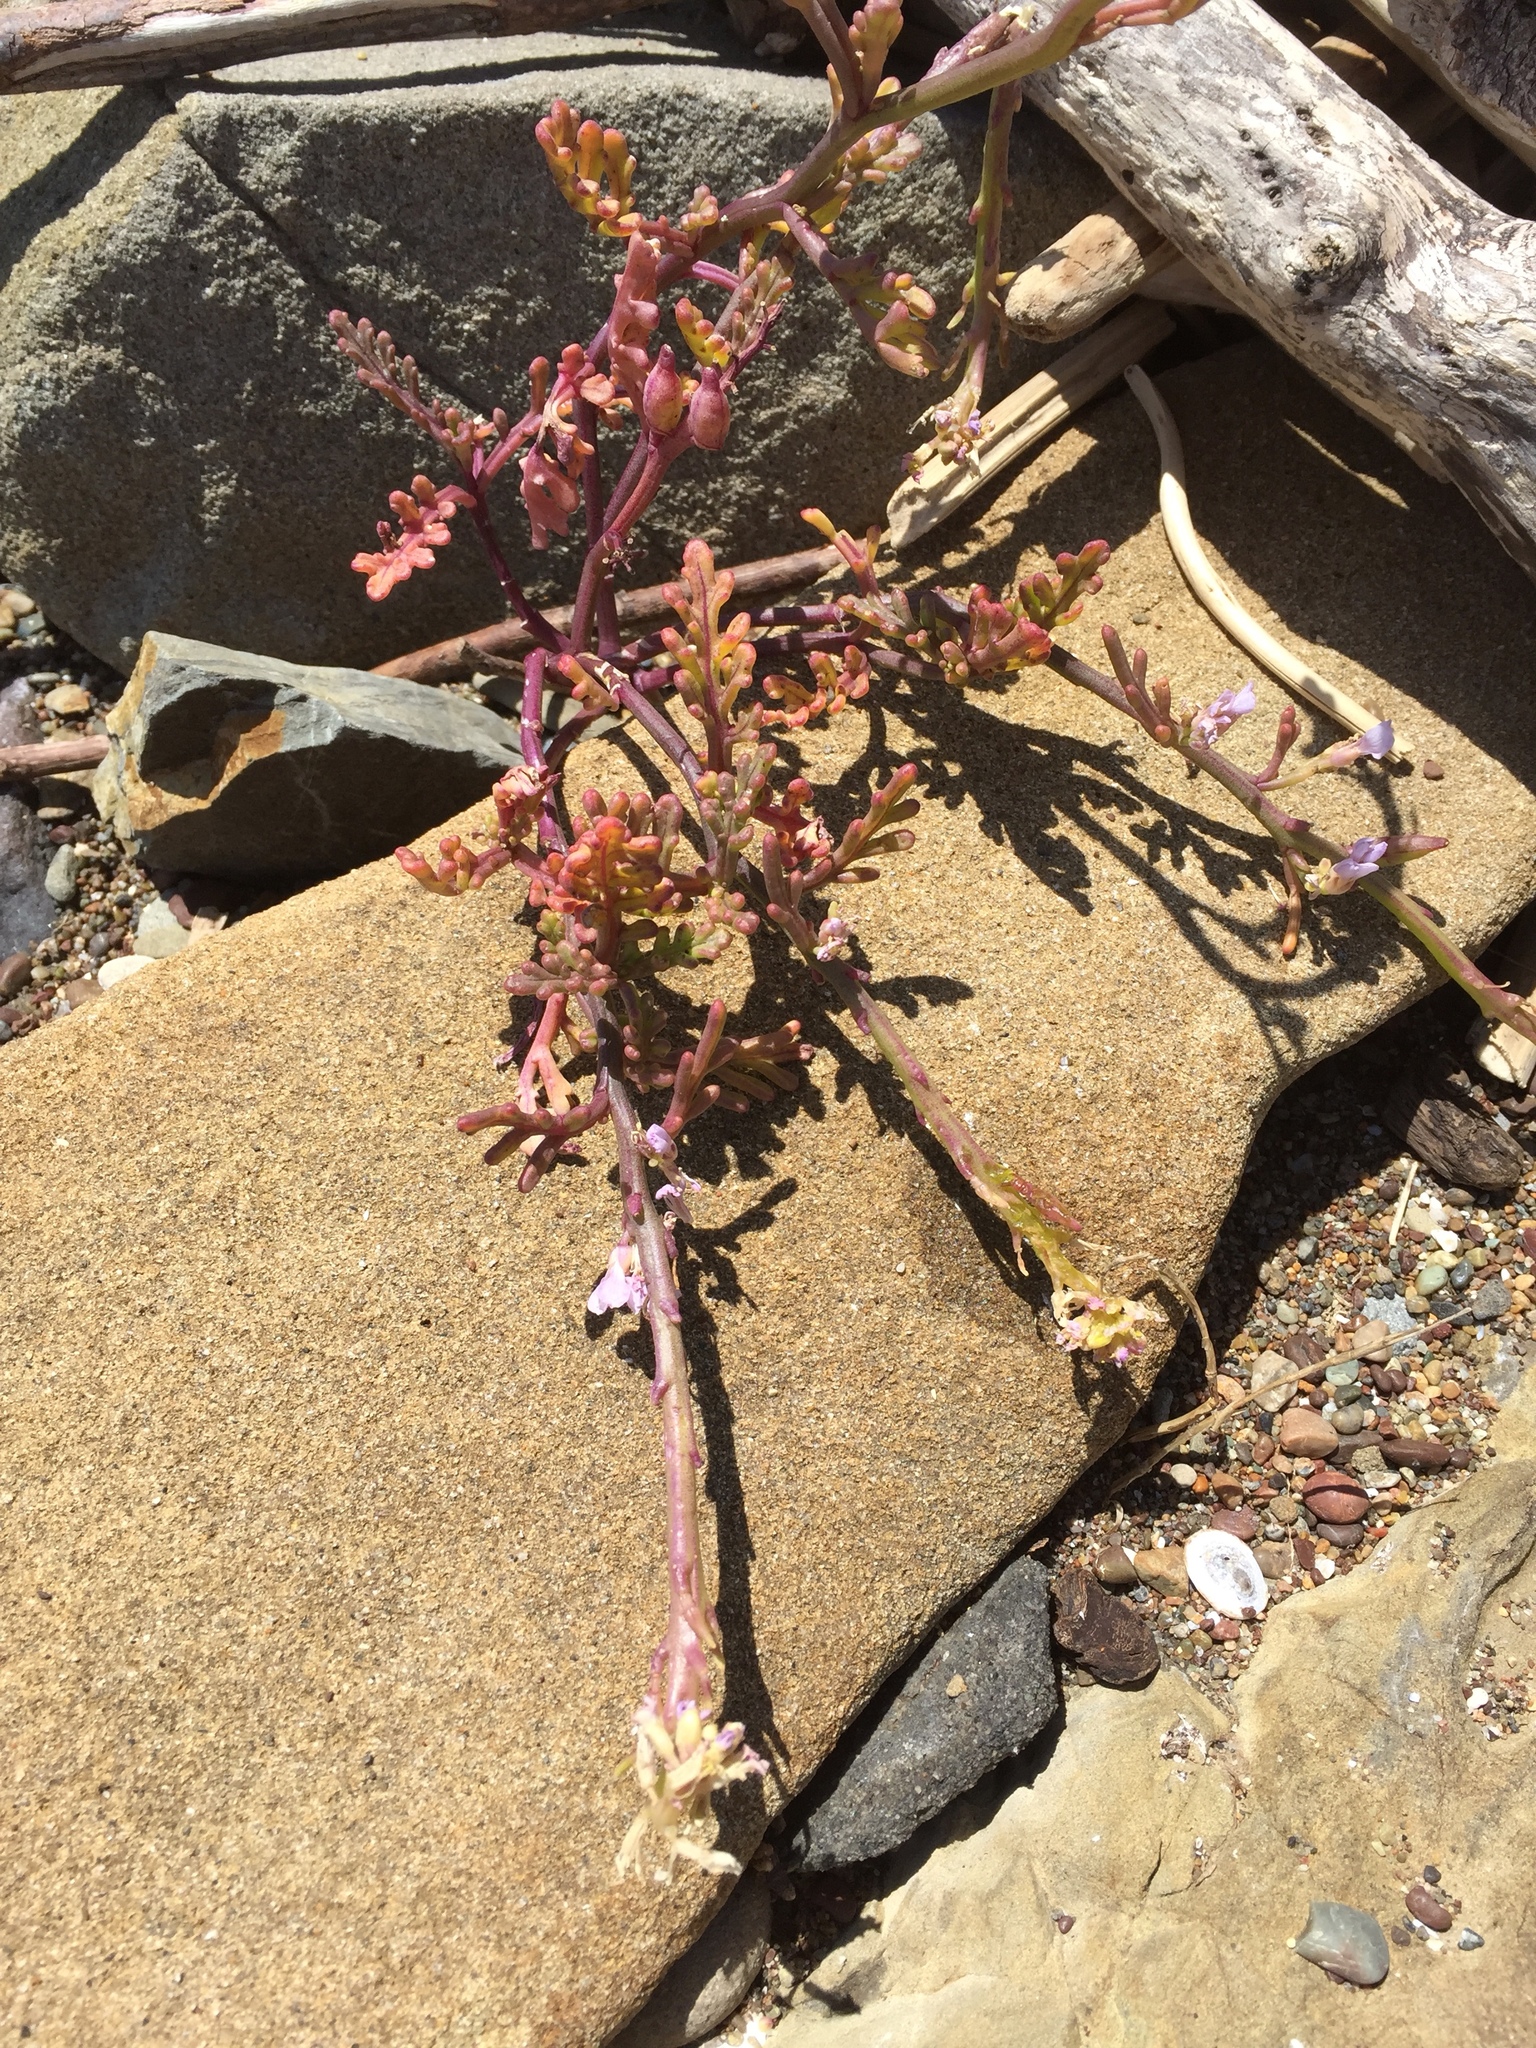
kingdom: Plantae
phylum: Tracheophyta
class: Magnoliopsida
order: Brassicales
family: Brassicaceae
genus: Cakile
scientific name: Cakile maritima
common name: Sea rocket
